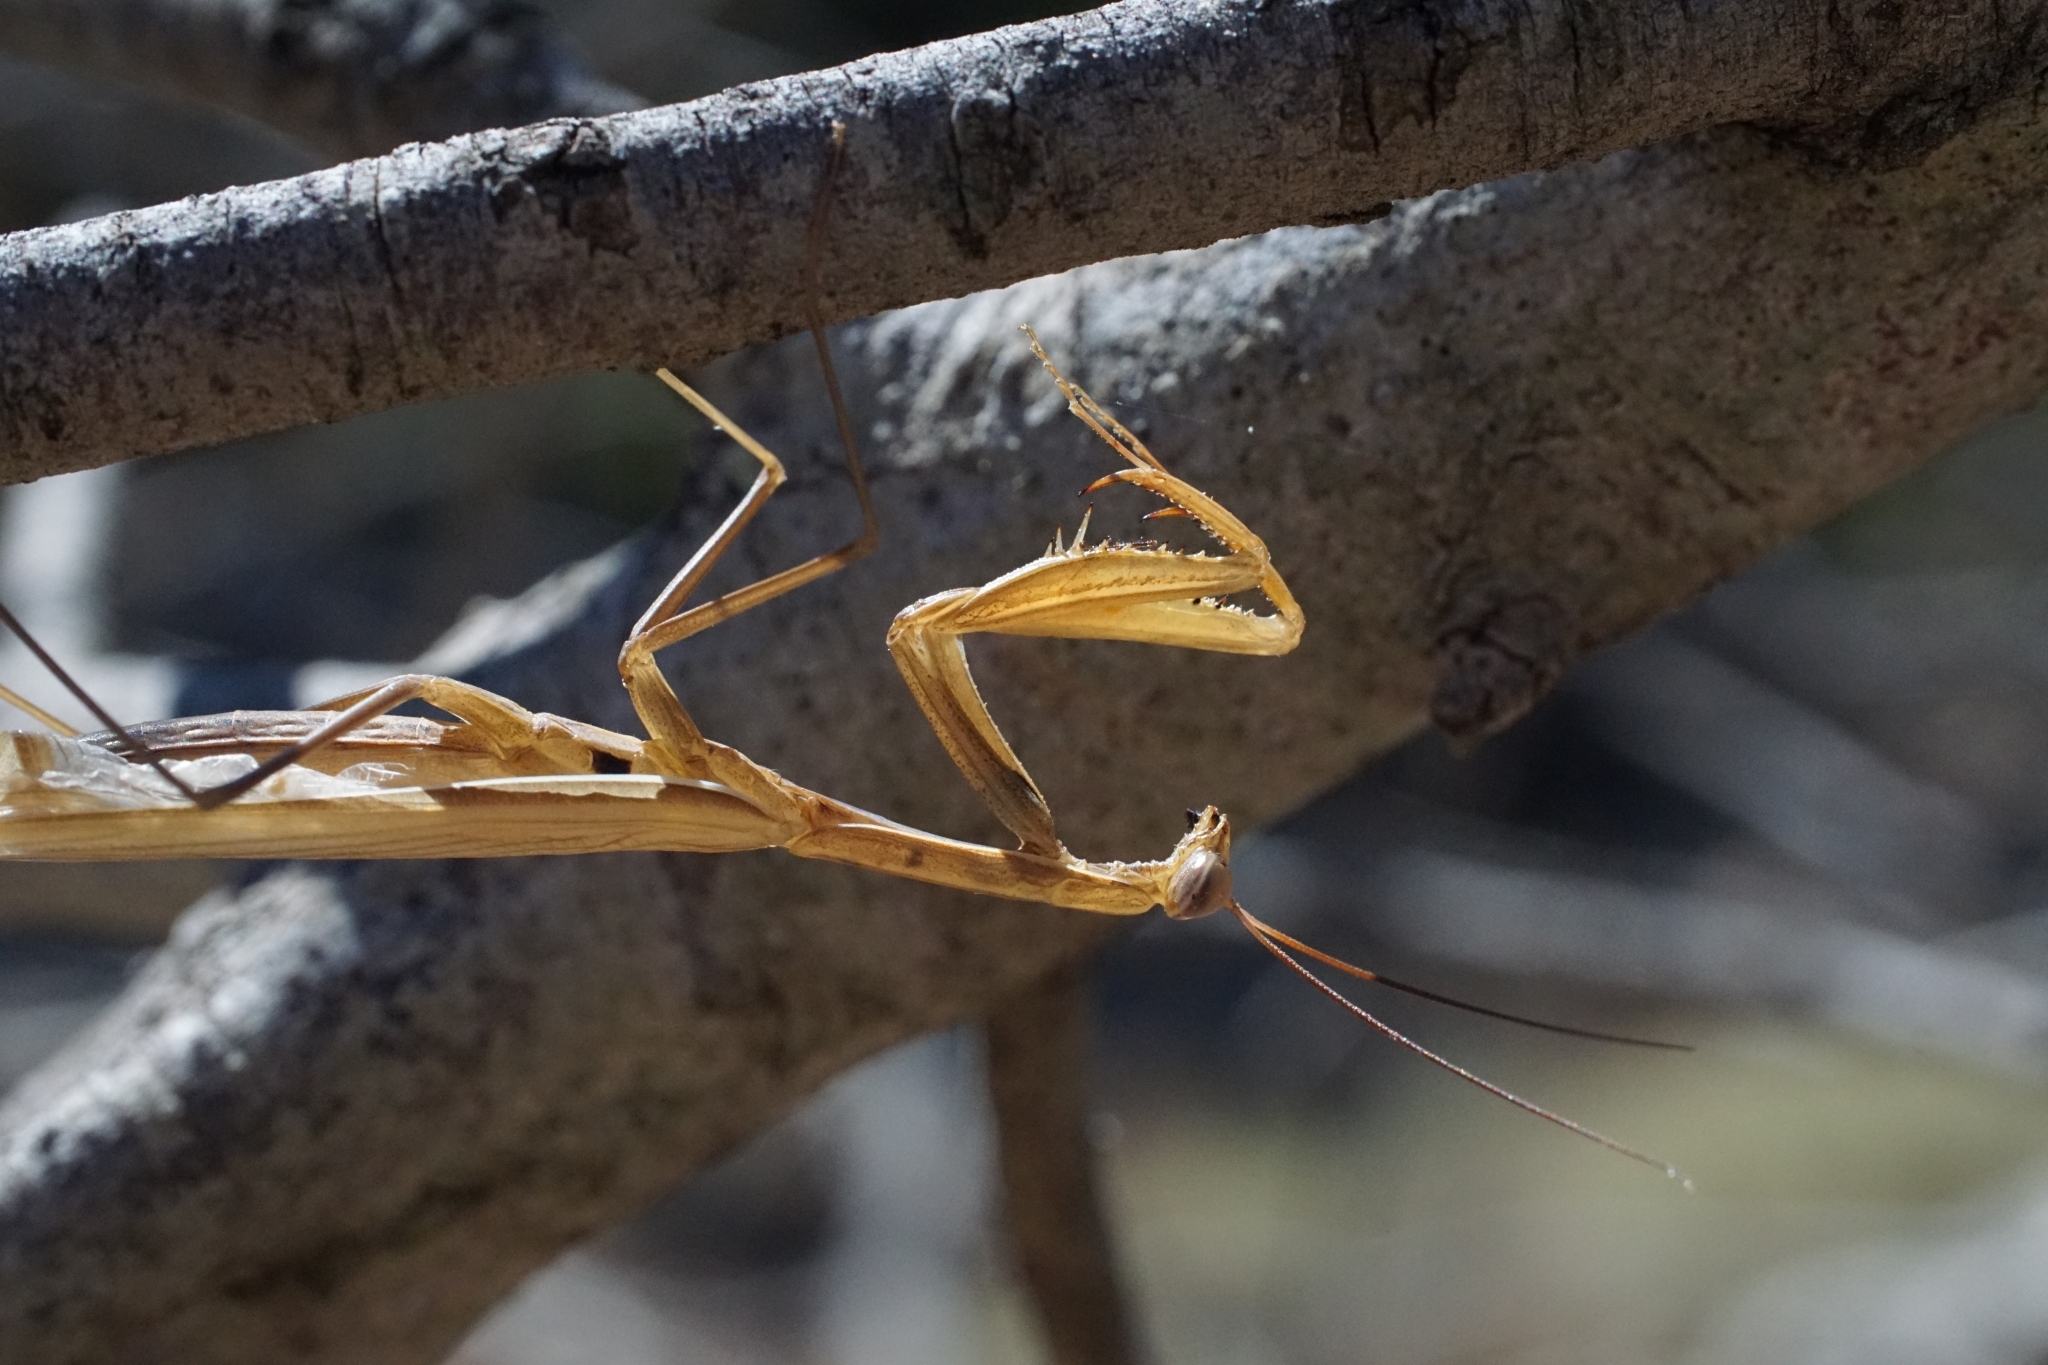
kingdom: Animalia
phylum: Arthropoda
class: Insecta
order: Mantodea
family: Mantidae
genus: Mantis
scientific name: Mantis religiosa
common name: Praying mantis
